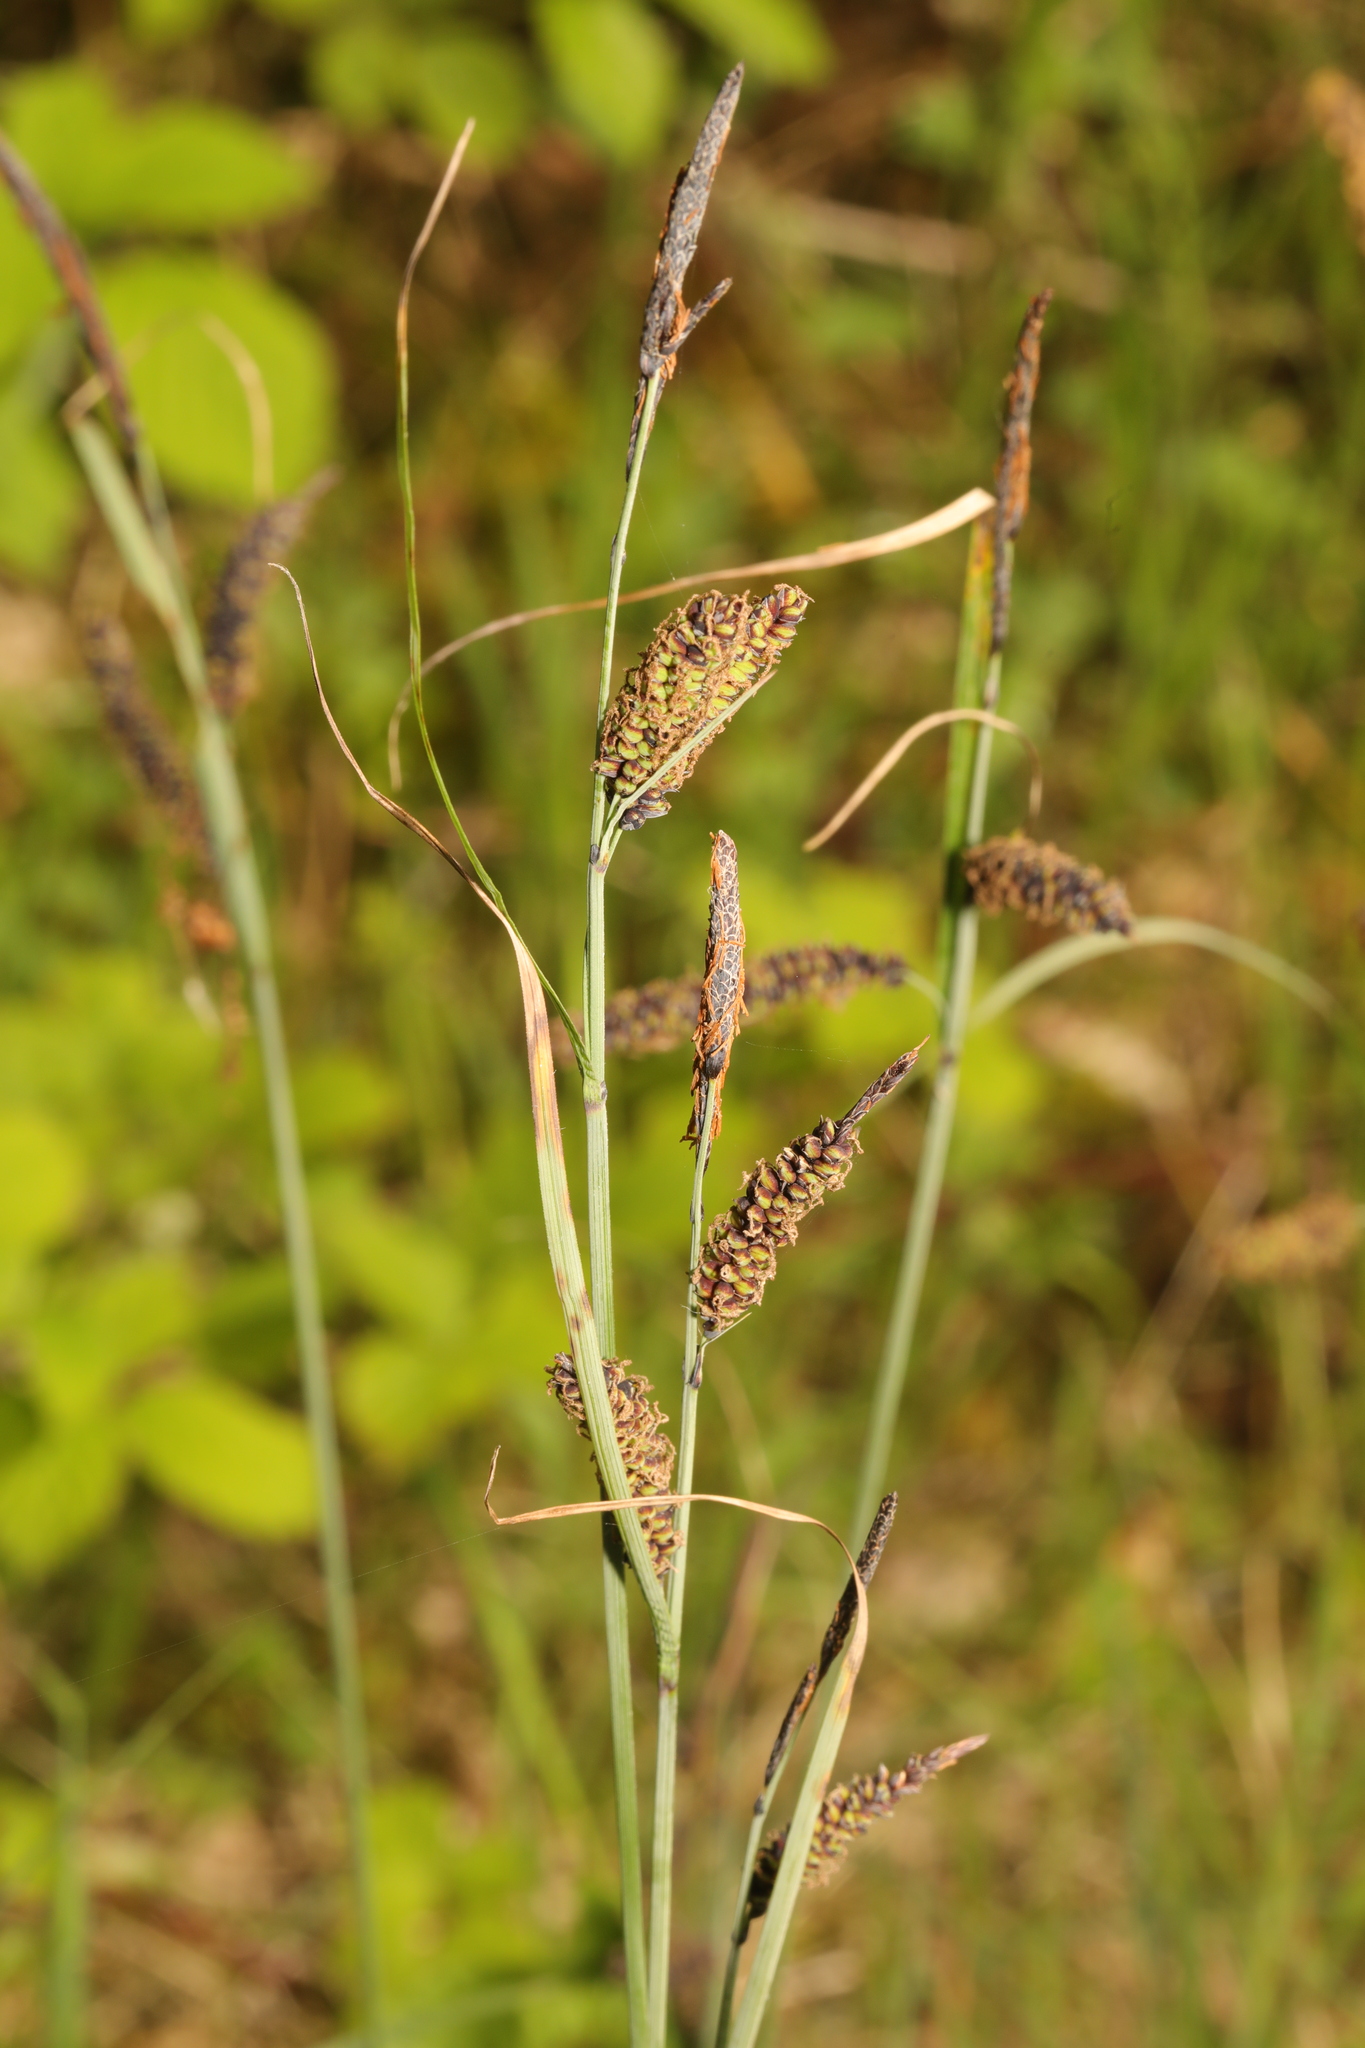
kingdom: Plantae
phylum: Tracheophyta
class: Liliopsida
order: Poales
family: Cyperaceae
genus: Carex
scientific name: Carex flacca
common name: Glaucous sedge
